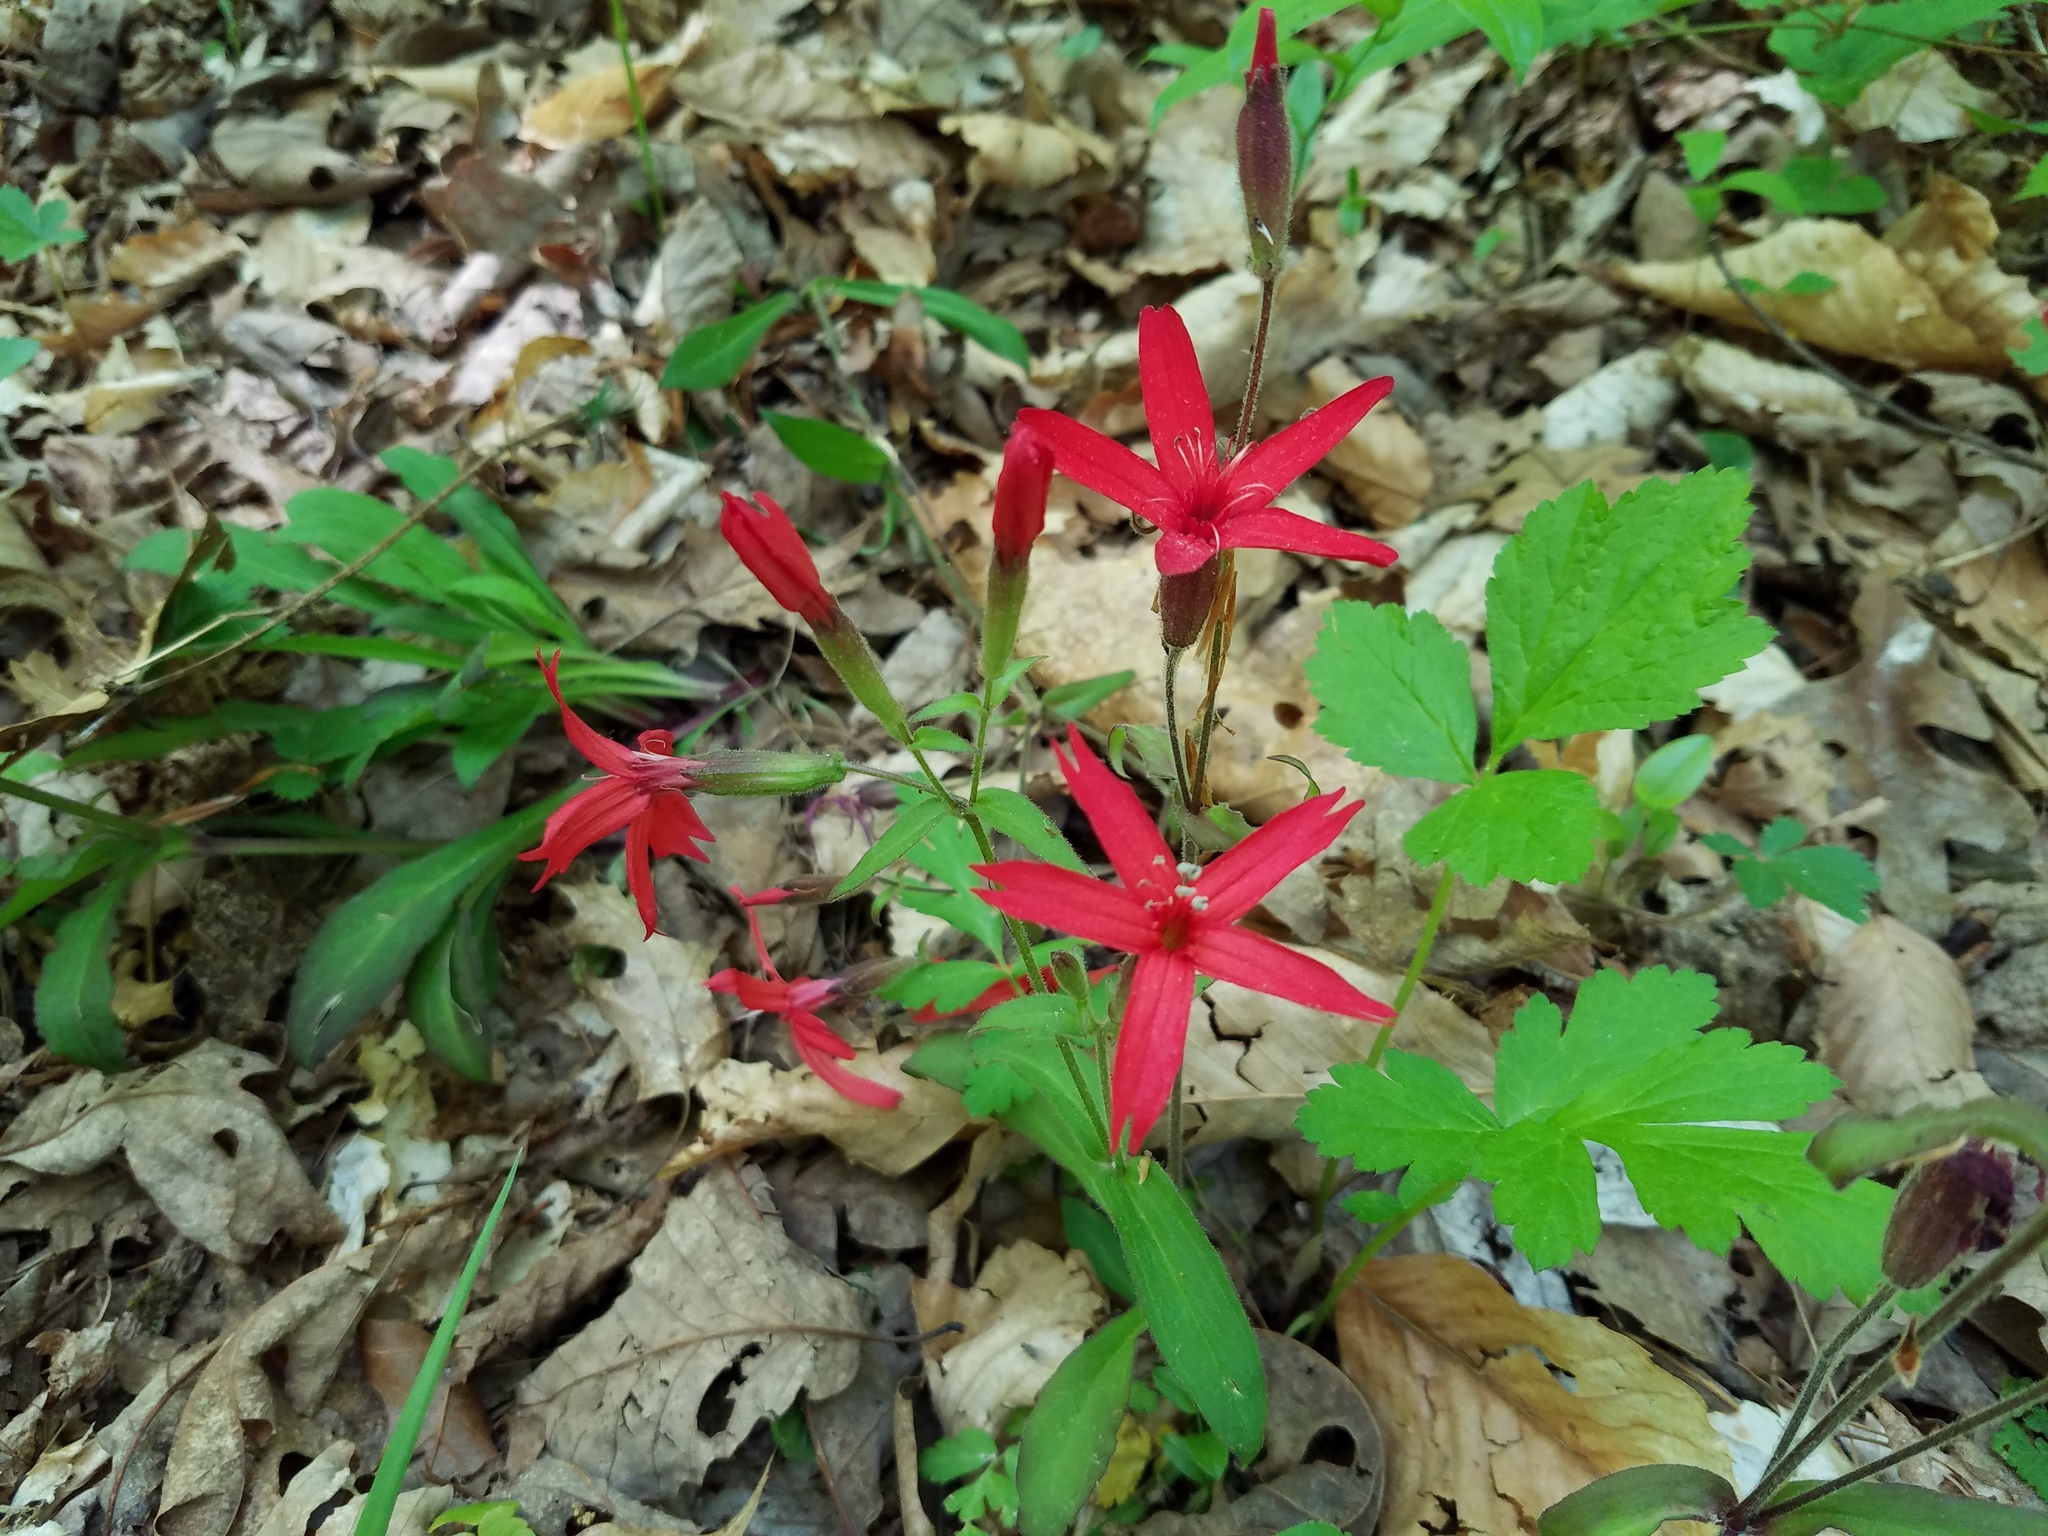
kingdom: Plantae
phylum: Tracheophyta
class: Magnoliopsida
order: Caryophyllales
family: Caryophyllaceae
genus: Silene
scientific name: Silene virginica
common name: Fire-pink
